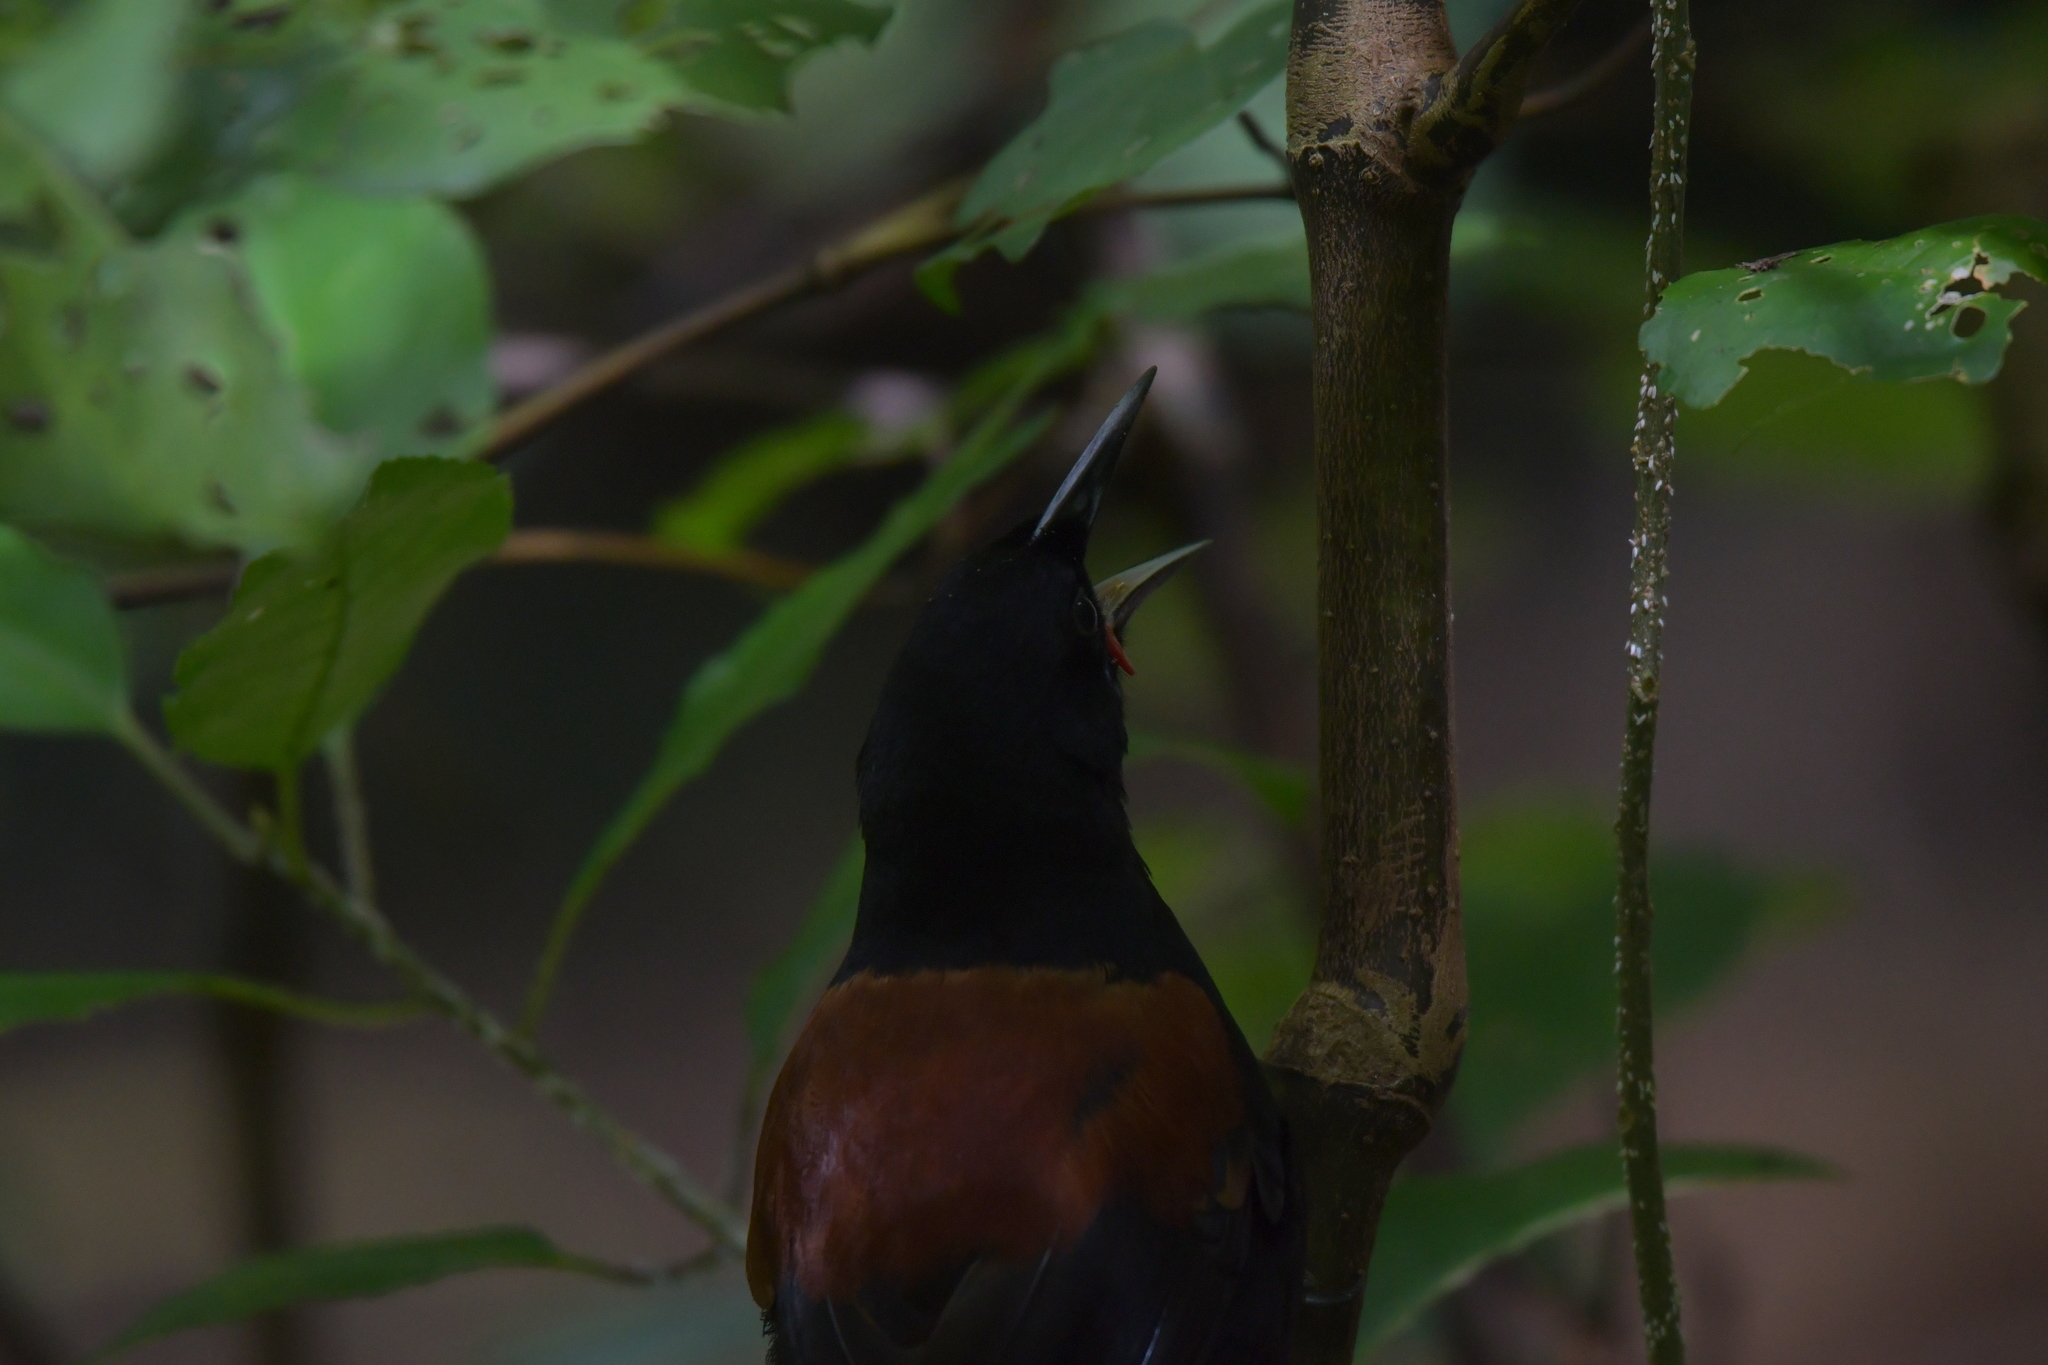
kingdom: Animalia
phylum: Chordata
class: Aves
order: Passeriformes
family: Callaeatidae
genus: Philesturnus
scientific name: Philesturnus carunculatus
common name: South island saddleback
